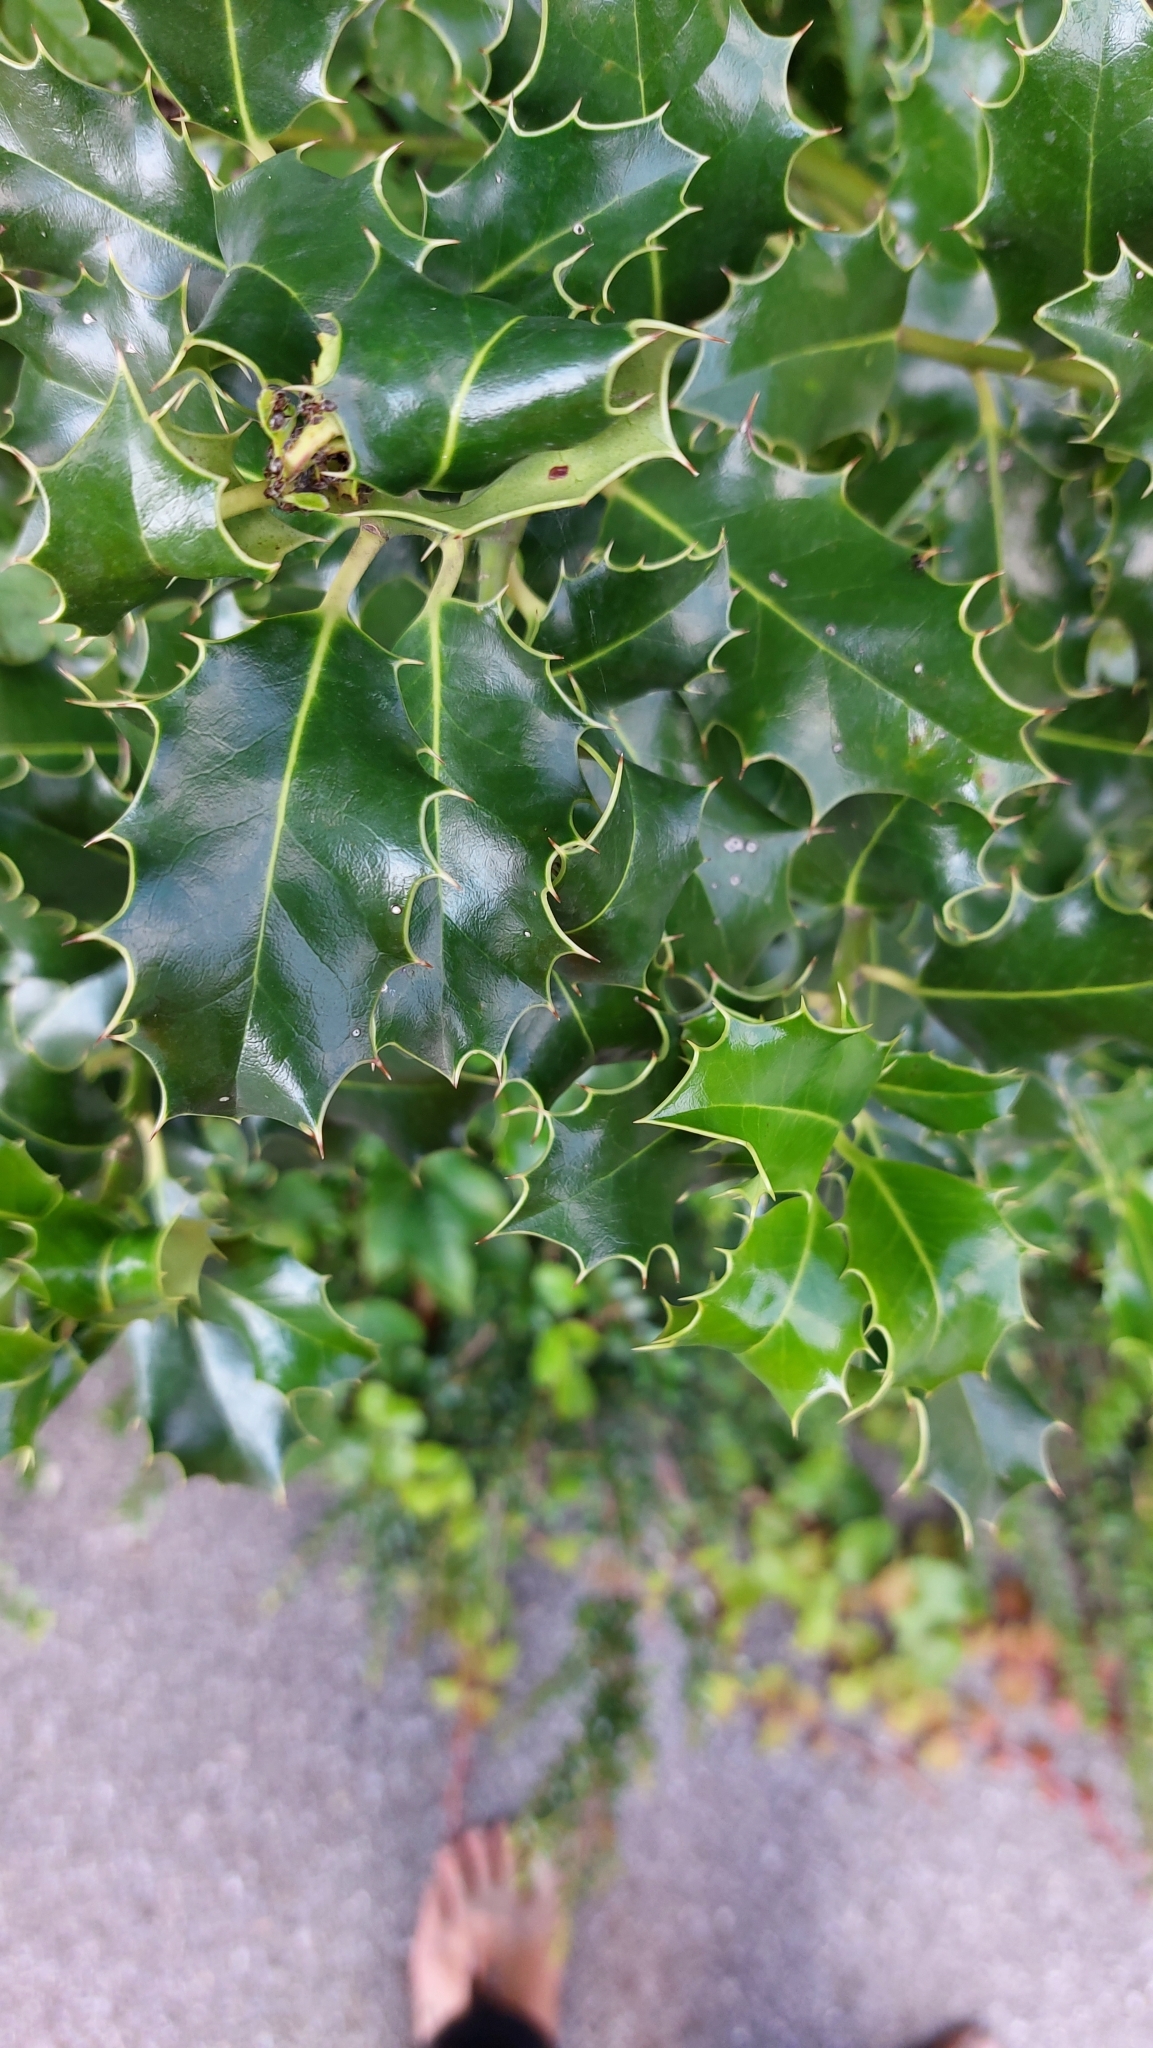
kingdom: Plantae
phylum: Tracheophyta
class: Magnoliopsida
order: Aquifoliales
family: Aquifoliaceae
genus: Ilex
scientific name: Ilex aquifolium
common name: English holly
